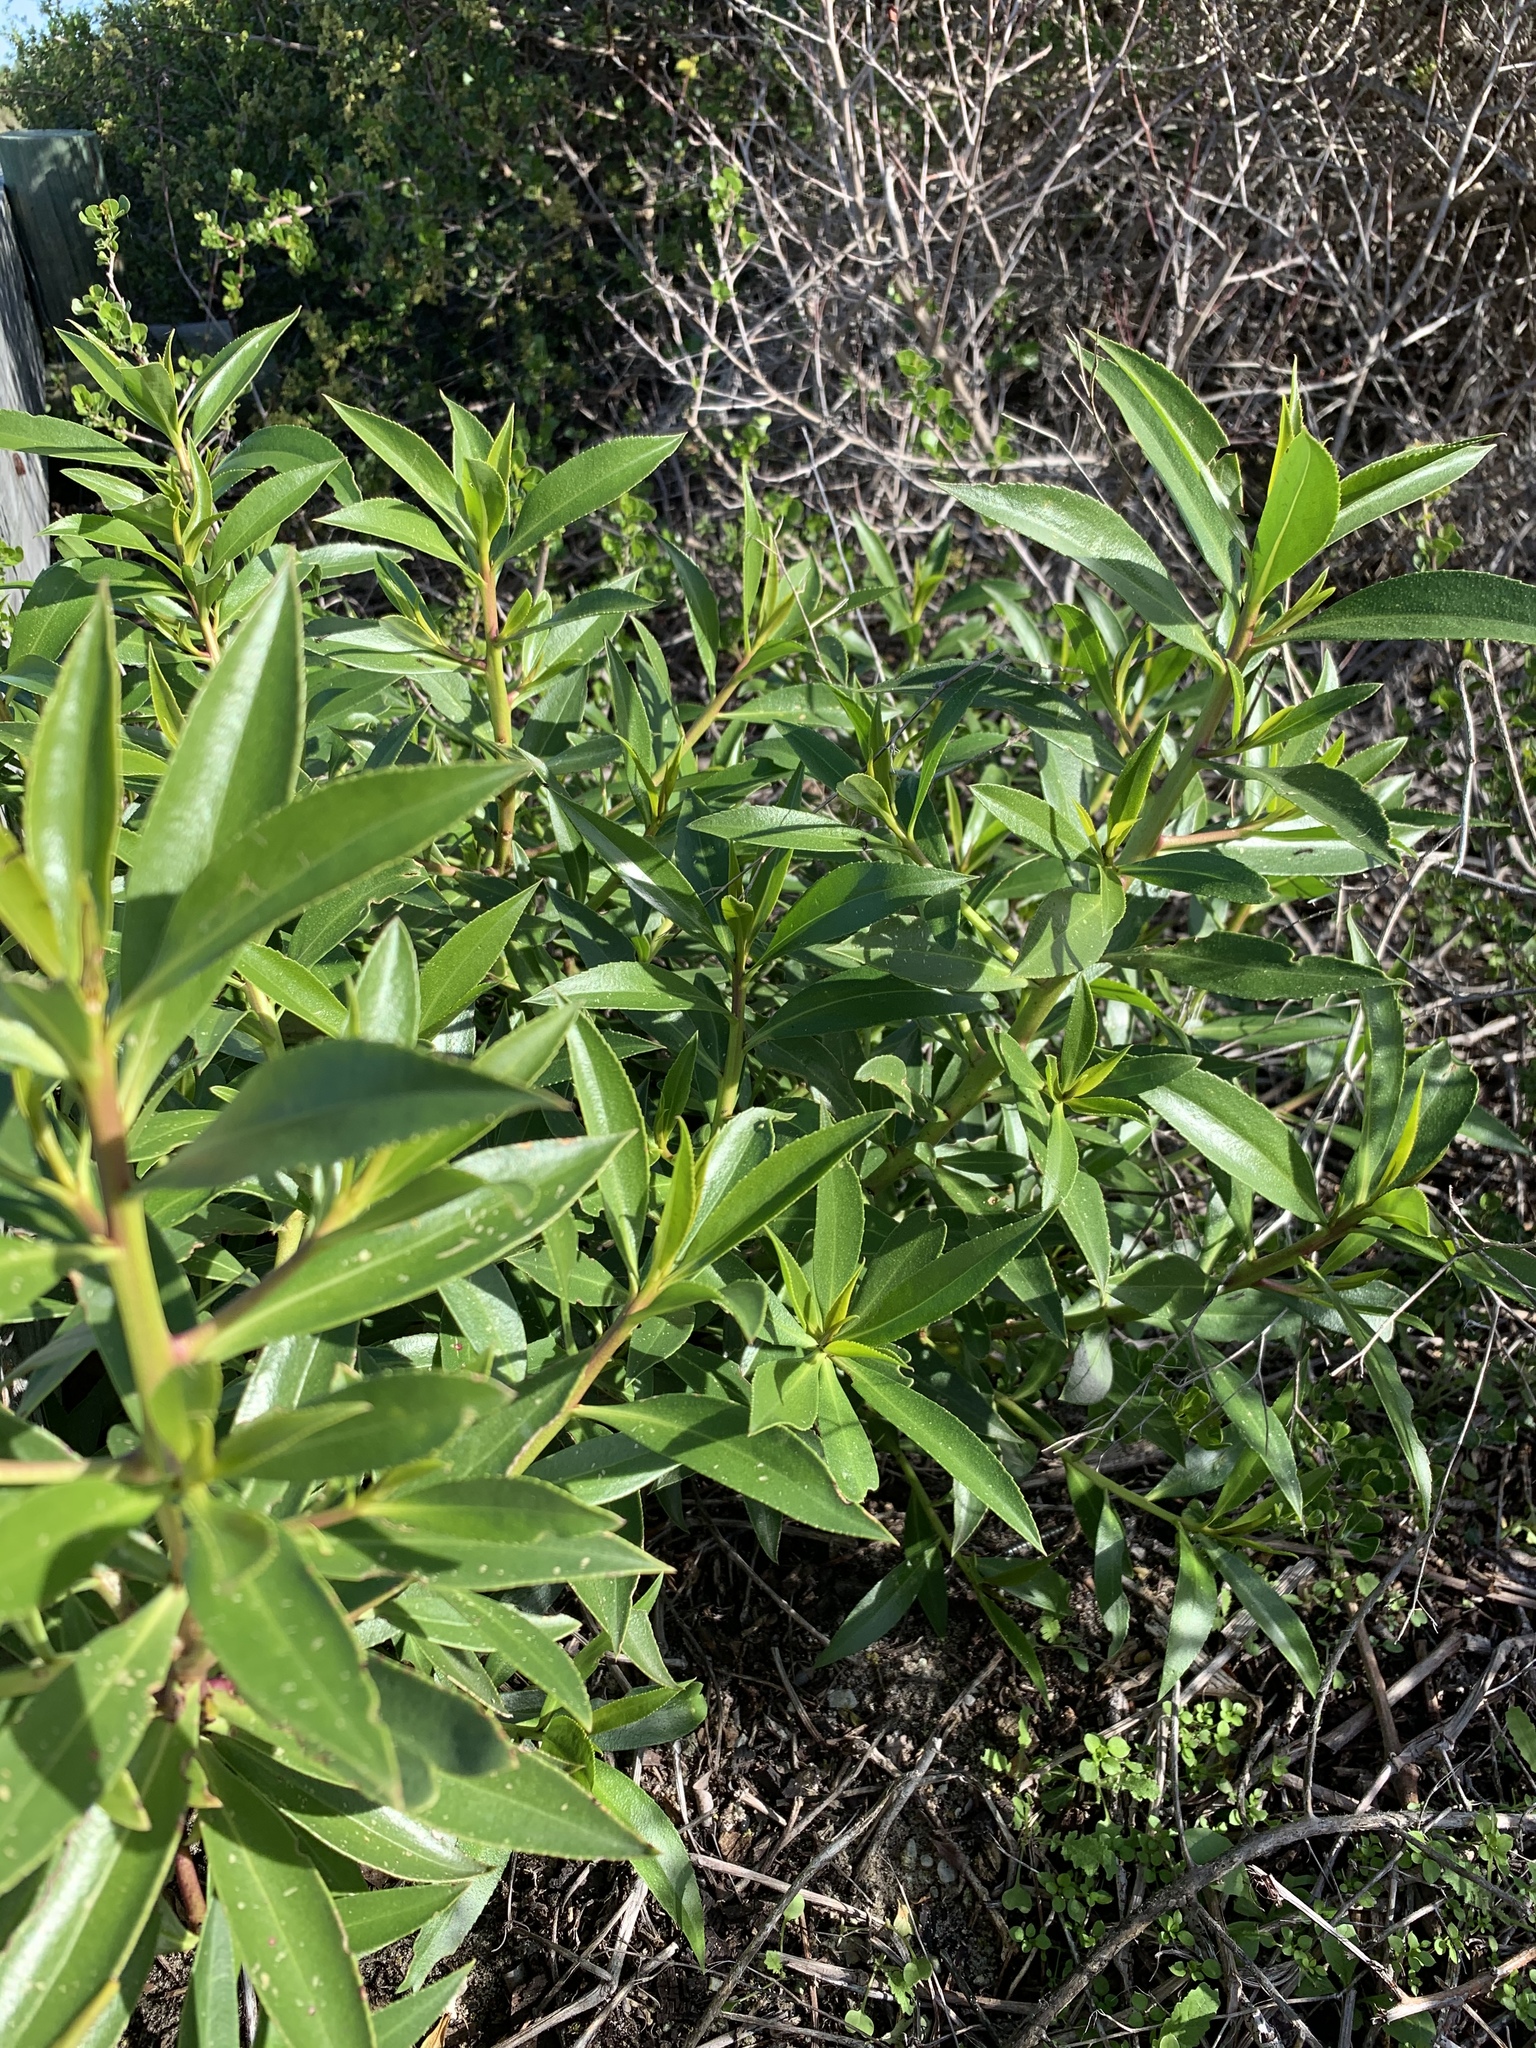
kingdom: Plantae
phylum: Tracheophyta
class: Magnoliopsida
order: Lamiales
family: Scrophulariaceae
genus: Myoporum
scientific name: Myoporum laetum
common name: Ngaio tree
